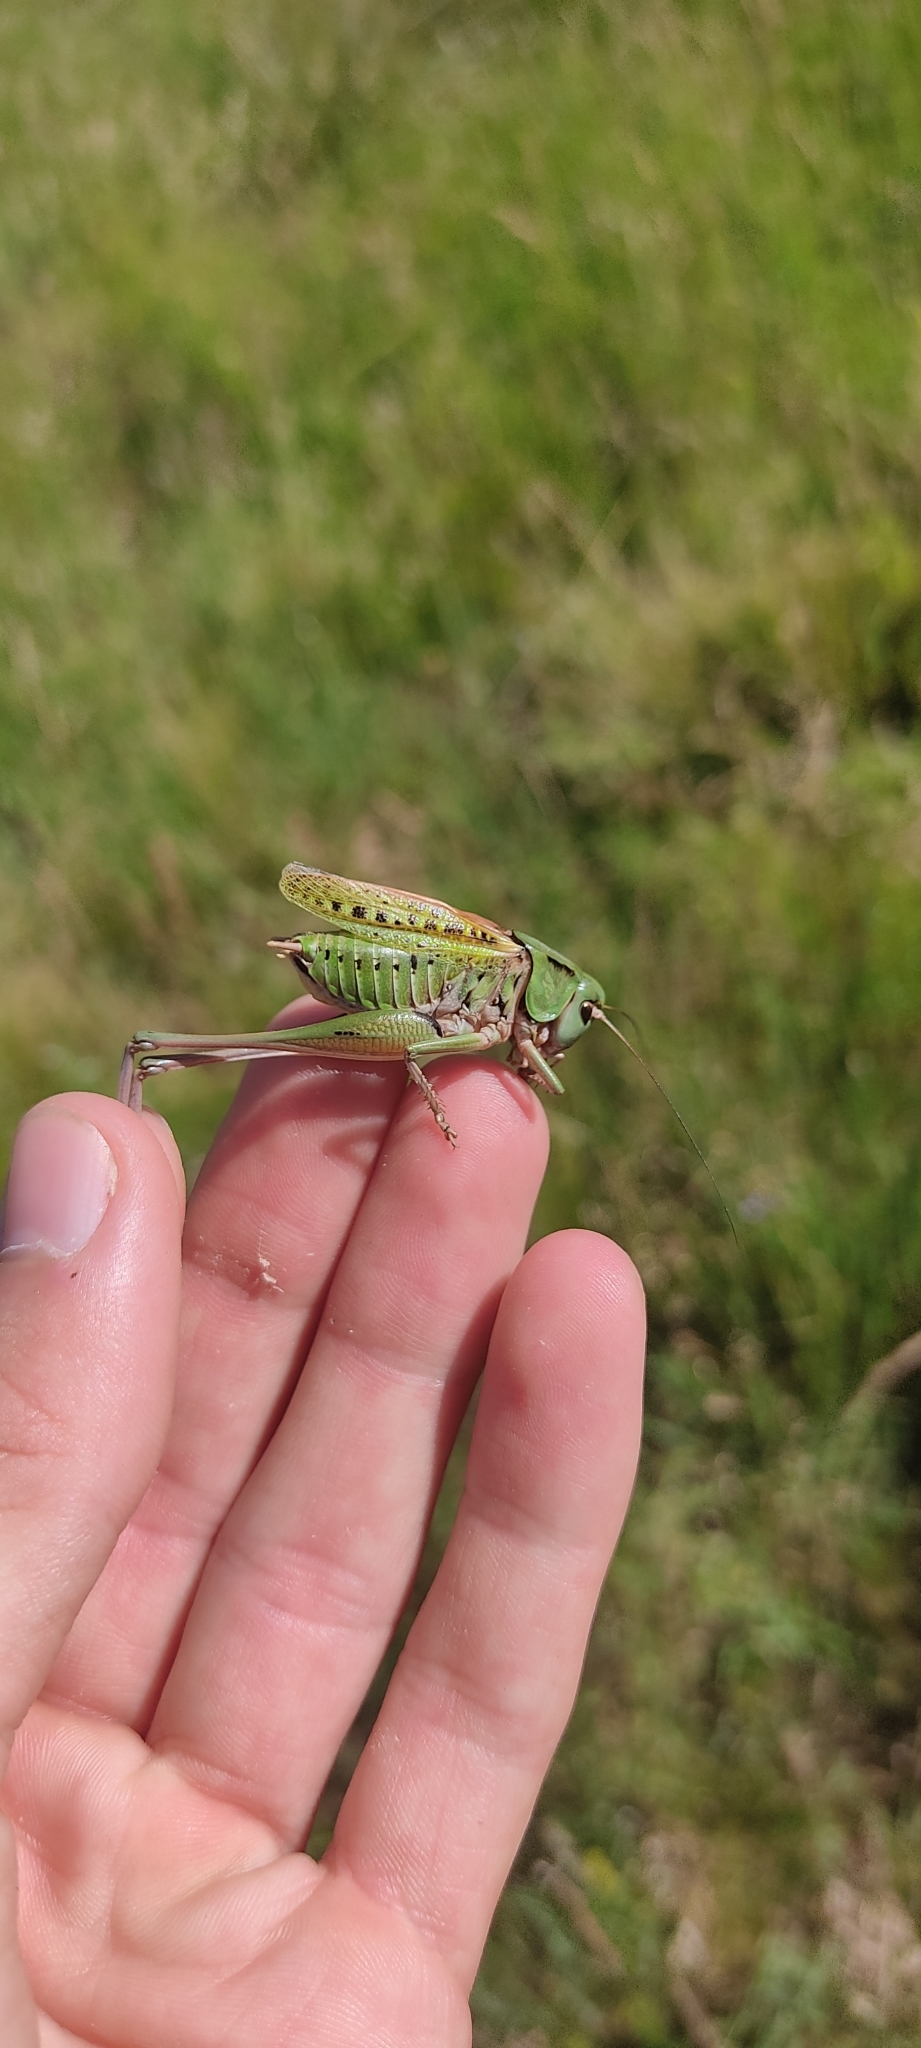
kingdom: Animalia
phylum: Arthropoda
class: Insecta
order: Orthoptera
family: Tettigoniidae
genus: Decticus
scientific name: Decticus verrucivorus
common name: Wart-biter
